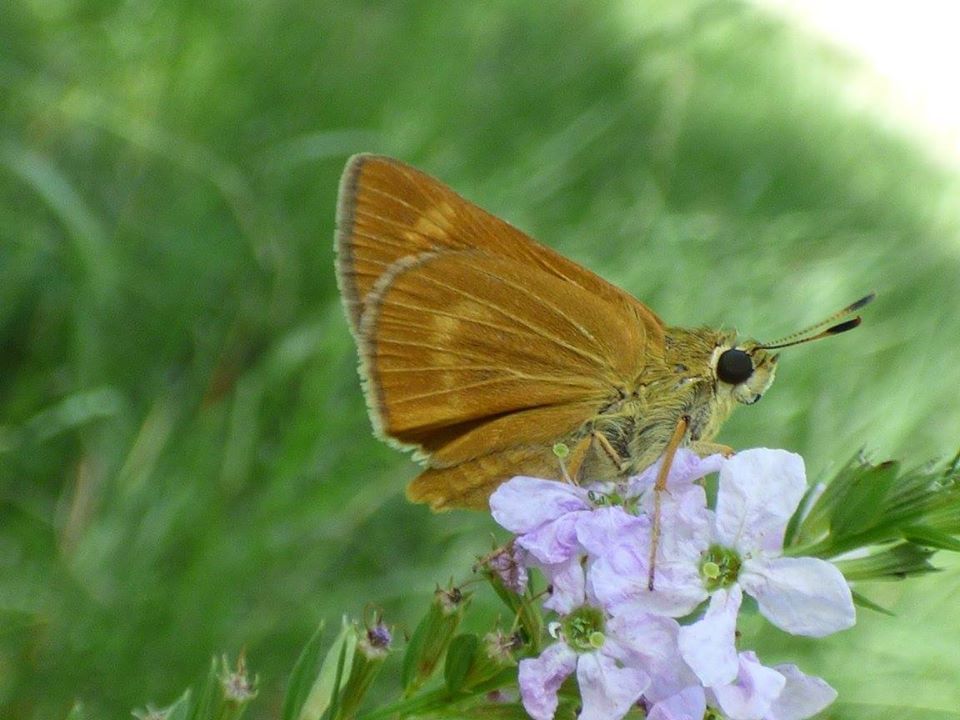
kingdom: Animalia
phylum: Arthropoda
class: Insecta
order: Lepidoptera
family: Hesperiidae
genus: Problema
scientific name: Problema byssus
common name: Byssus skipper
